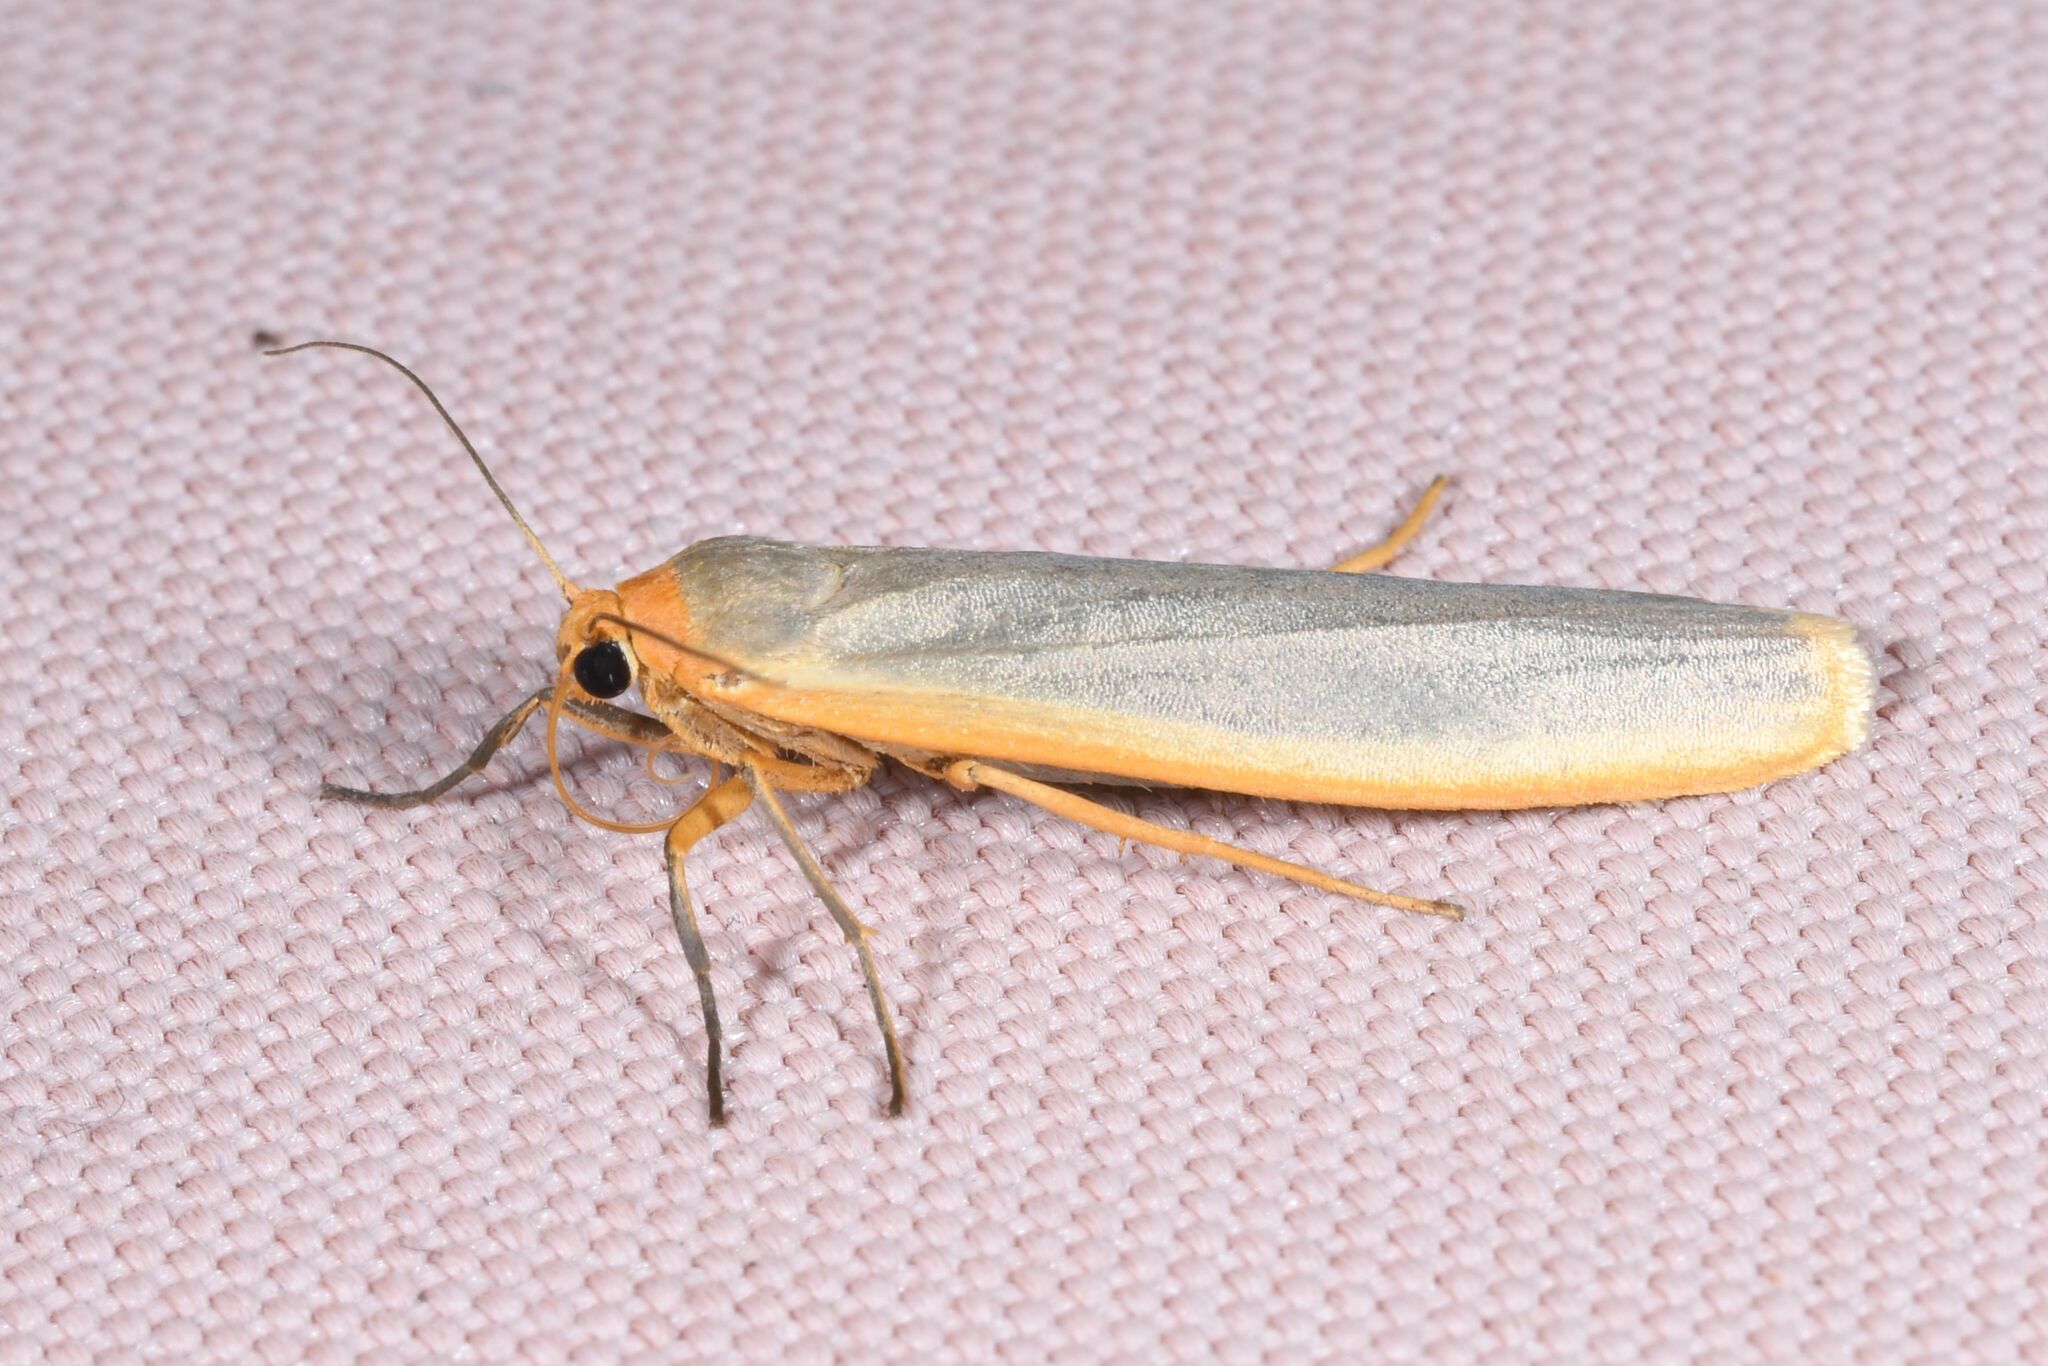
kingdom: Animalia
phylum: Arthropoda
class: Insecta
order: Lepidoptera
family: Erebidae
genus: Manulea
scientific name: Manulea complana
